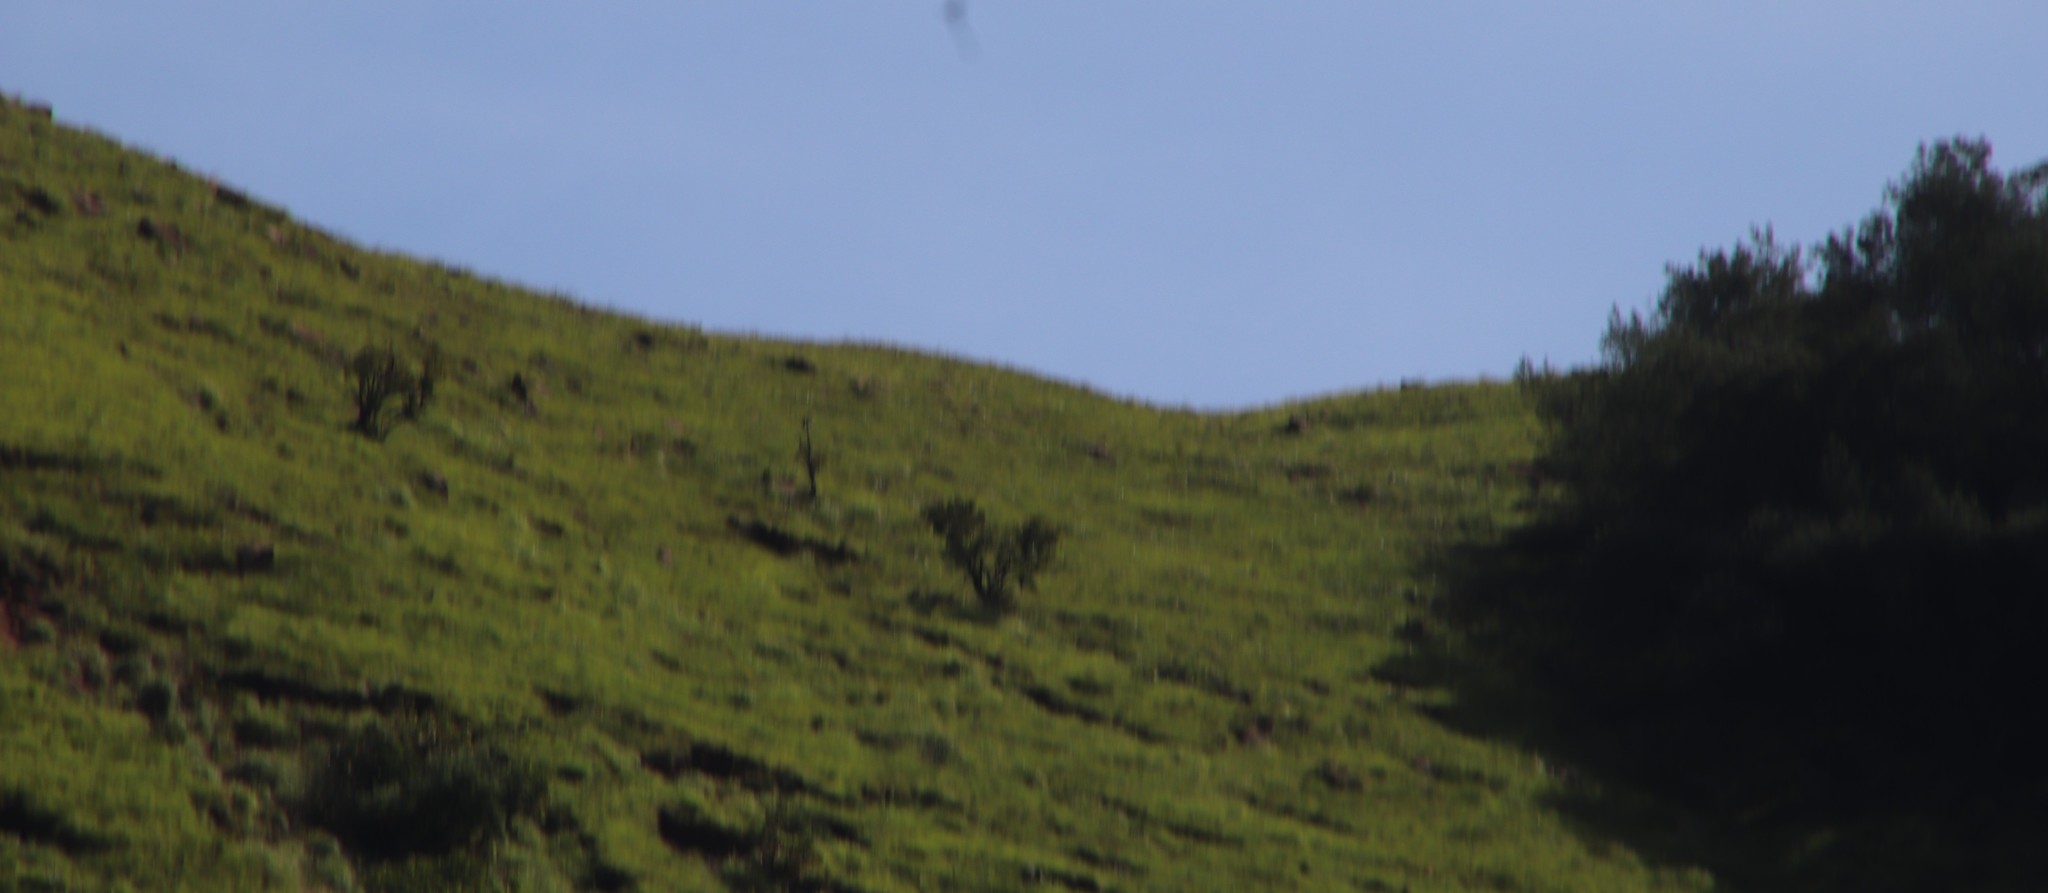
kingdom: Plantae
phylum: Tracheophyta
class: Magnoliopsida
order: Proteales
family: Proteaceae
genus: Protea
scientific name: Protea caffra
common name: Common sugarbush
